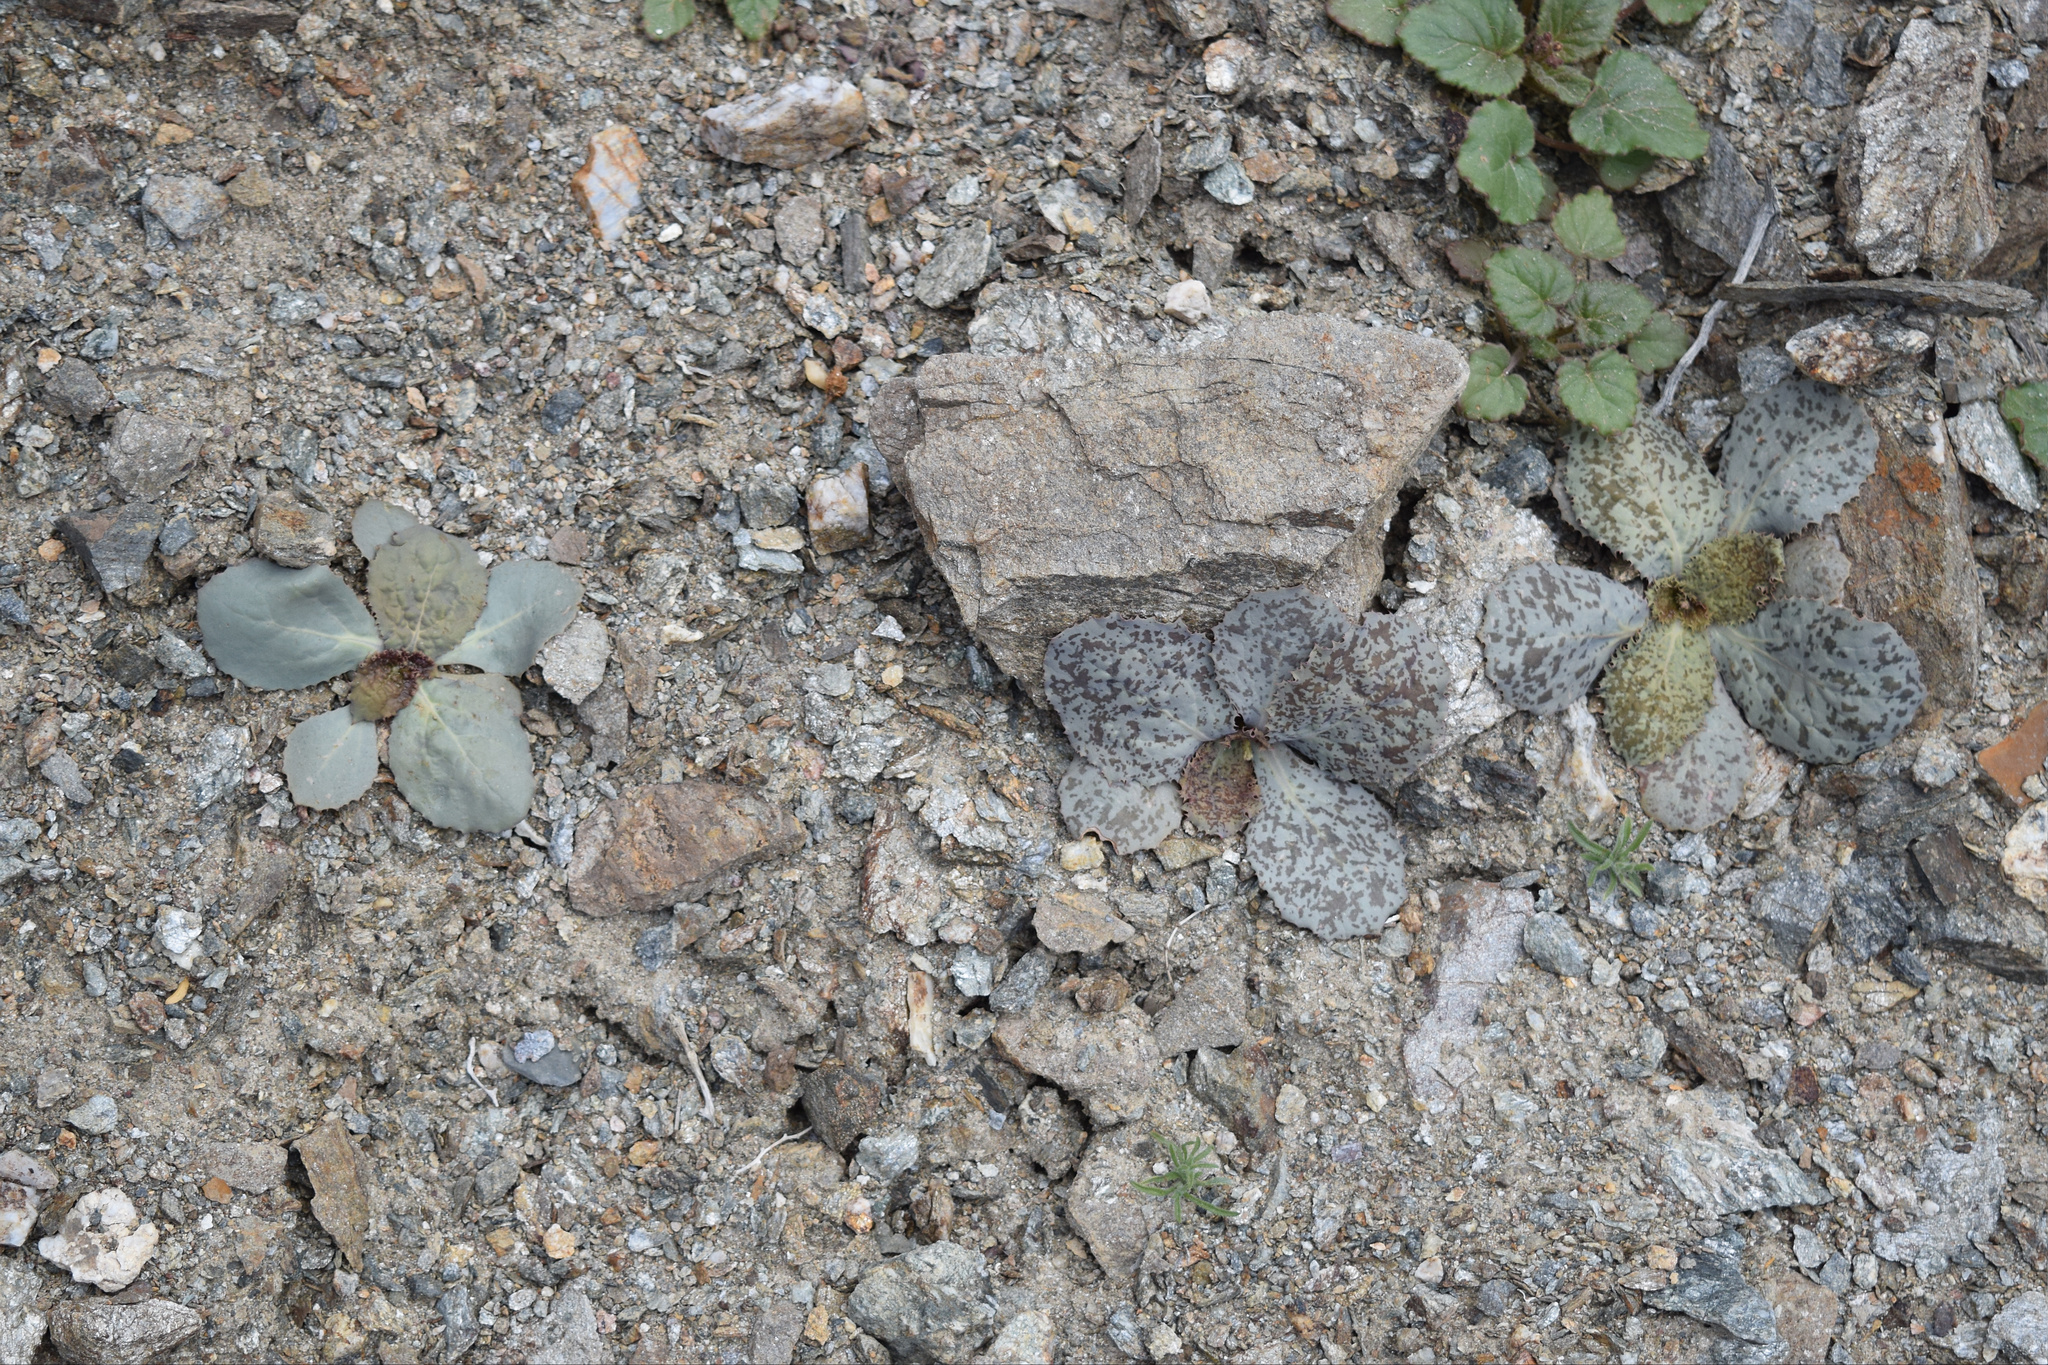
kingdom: Plantae
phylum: Tracheophyta
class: Magnoliopsida
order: Asterales
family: Asteraceae
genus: Atrichoseris
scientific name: Atrichoseris platyphylla
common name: Tobaccoweed
